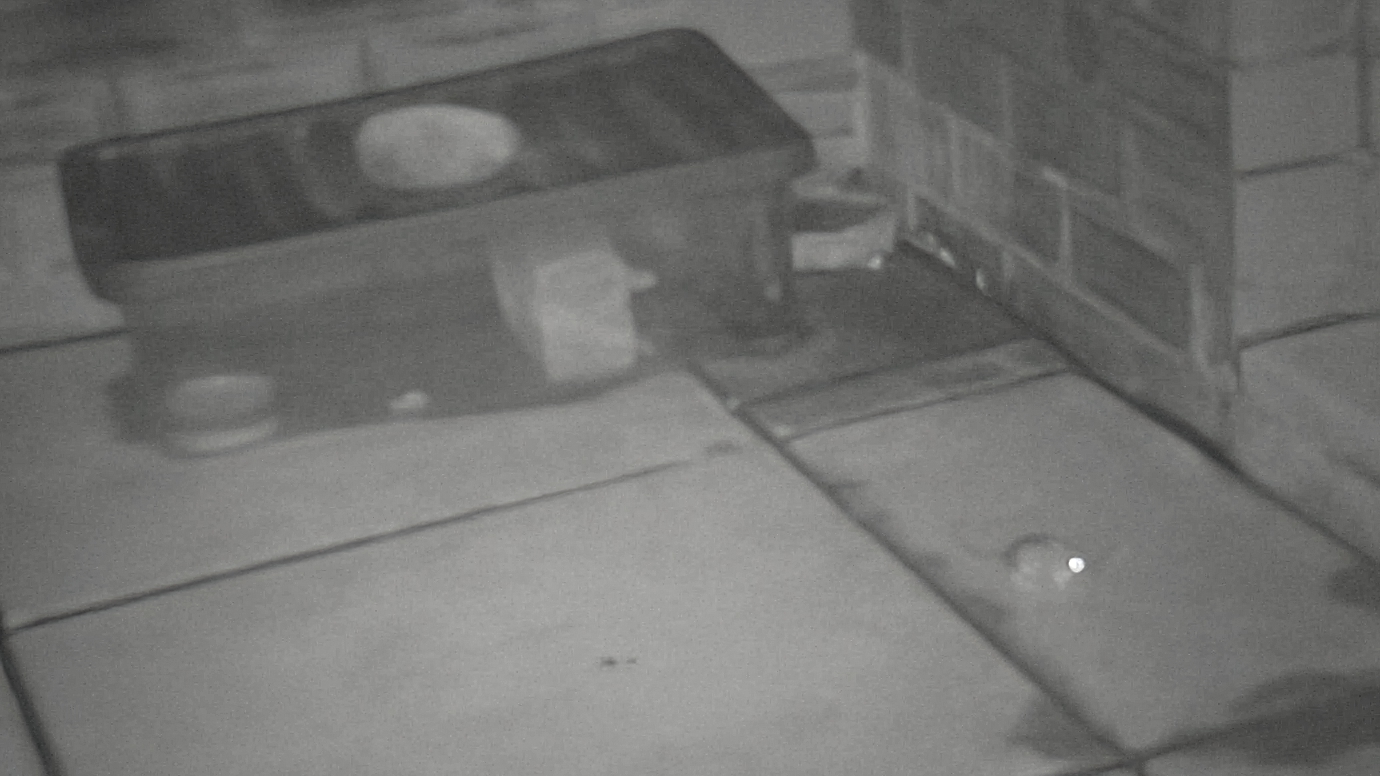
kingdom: Animalia
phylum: Chordata
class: Mammalia
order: Rodentia
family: Muridae
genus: Apodemus
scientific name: Apodemus sylvaticus
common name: Wood mouse
